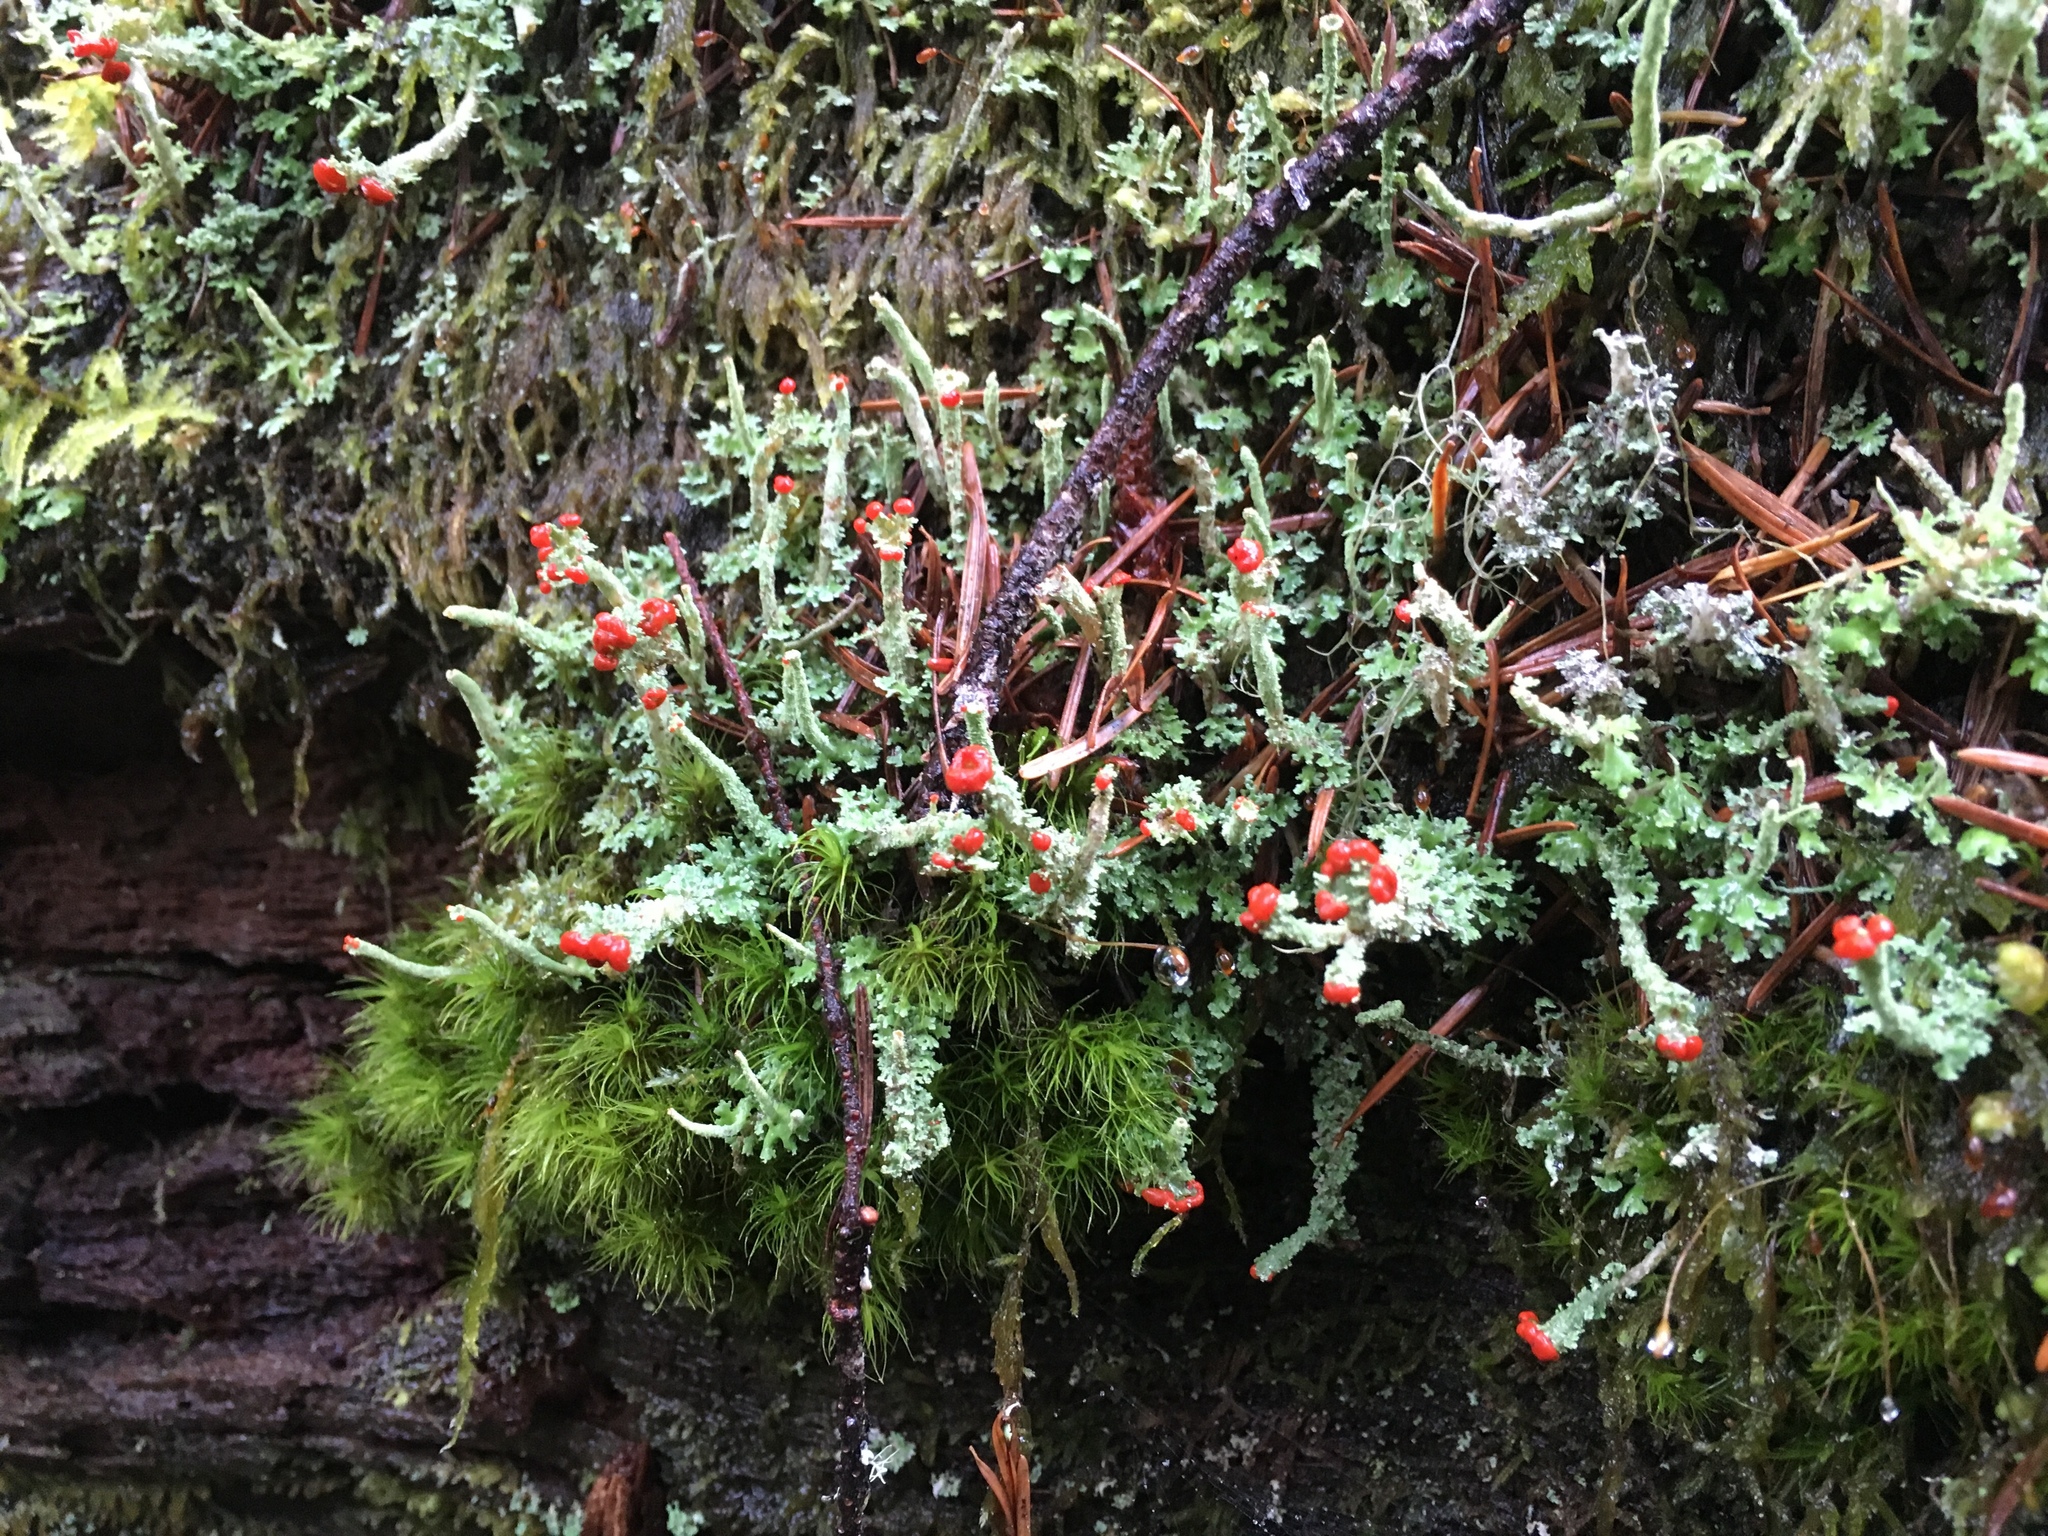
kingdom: Fungi
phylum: Ascomycota
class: Lecanoromycetes
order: Lecanorales
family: Cladoniaceae
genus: Cladonia
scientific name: Cladonia bellidiflora
